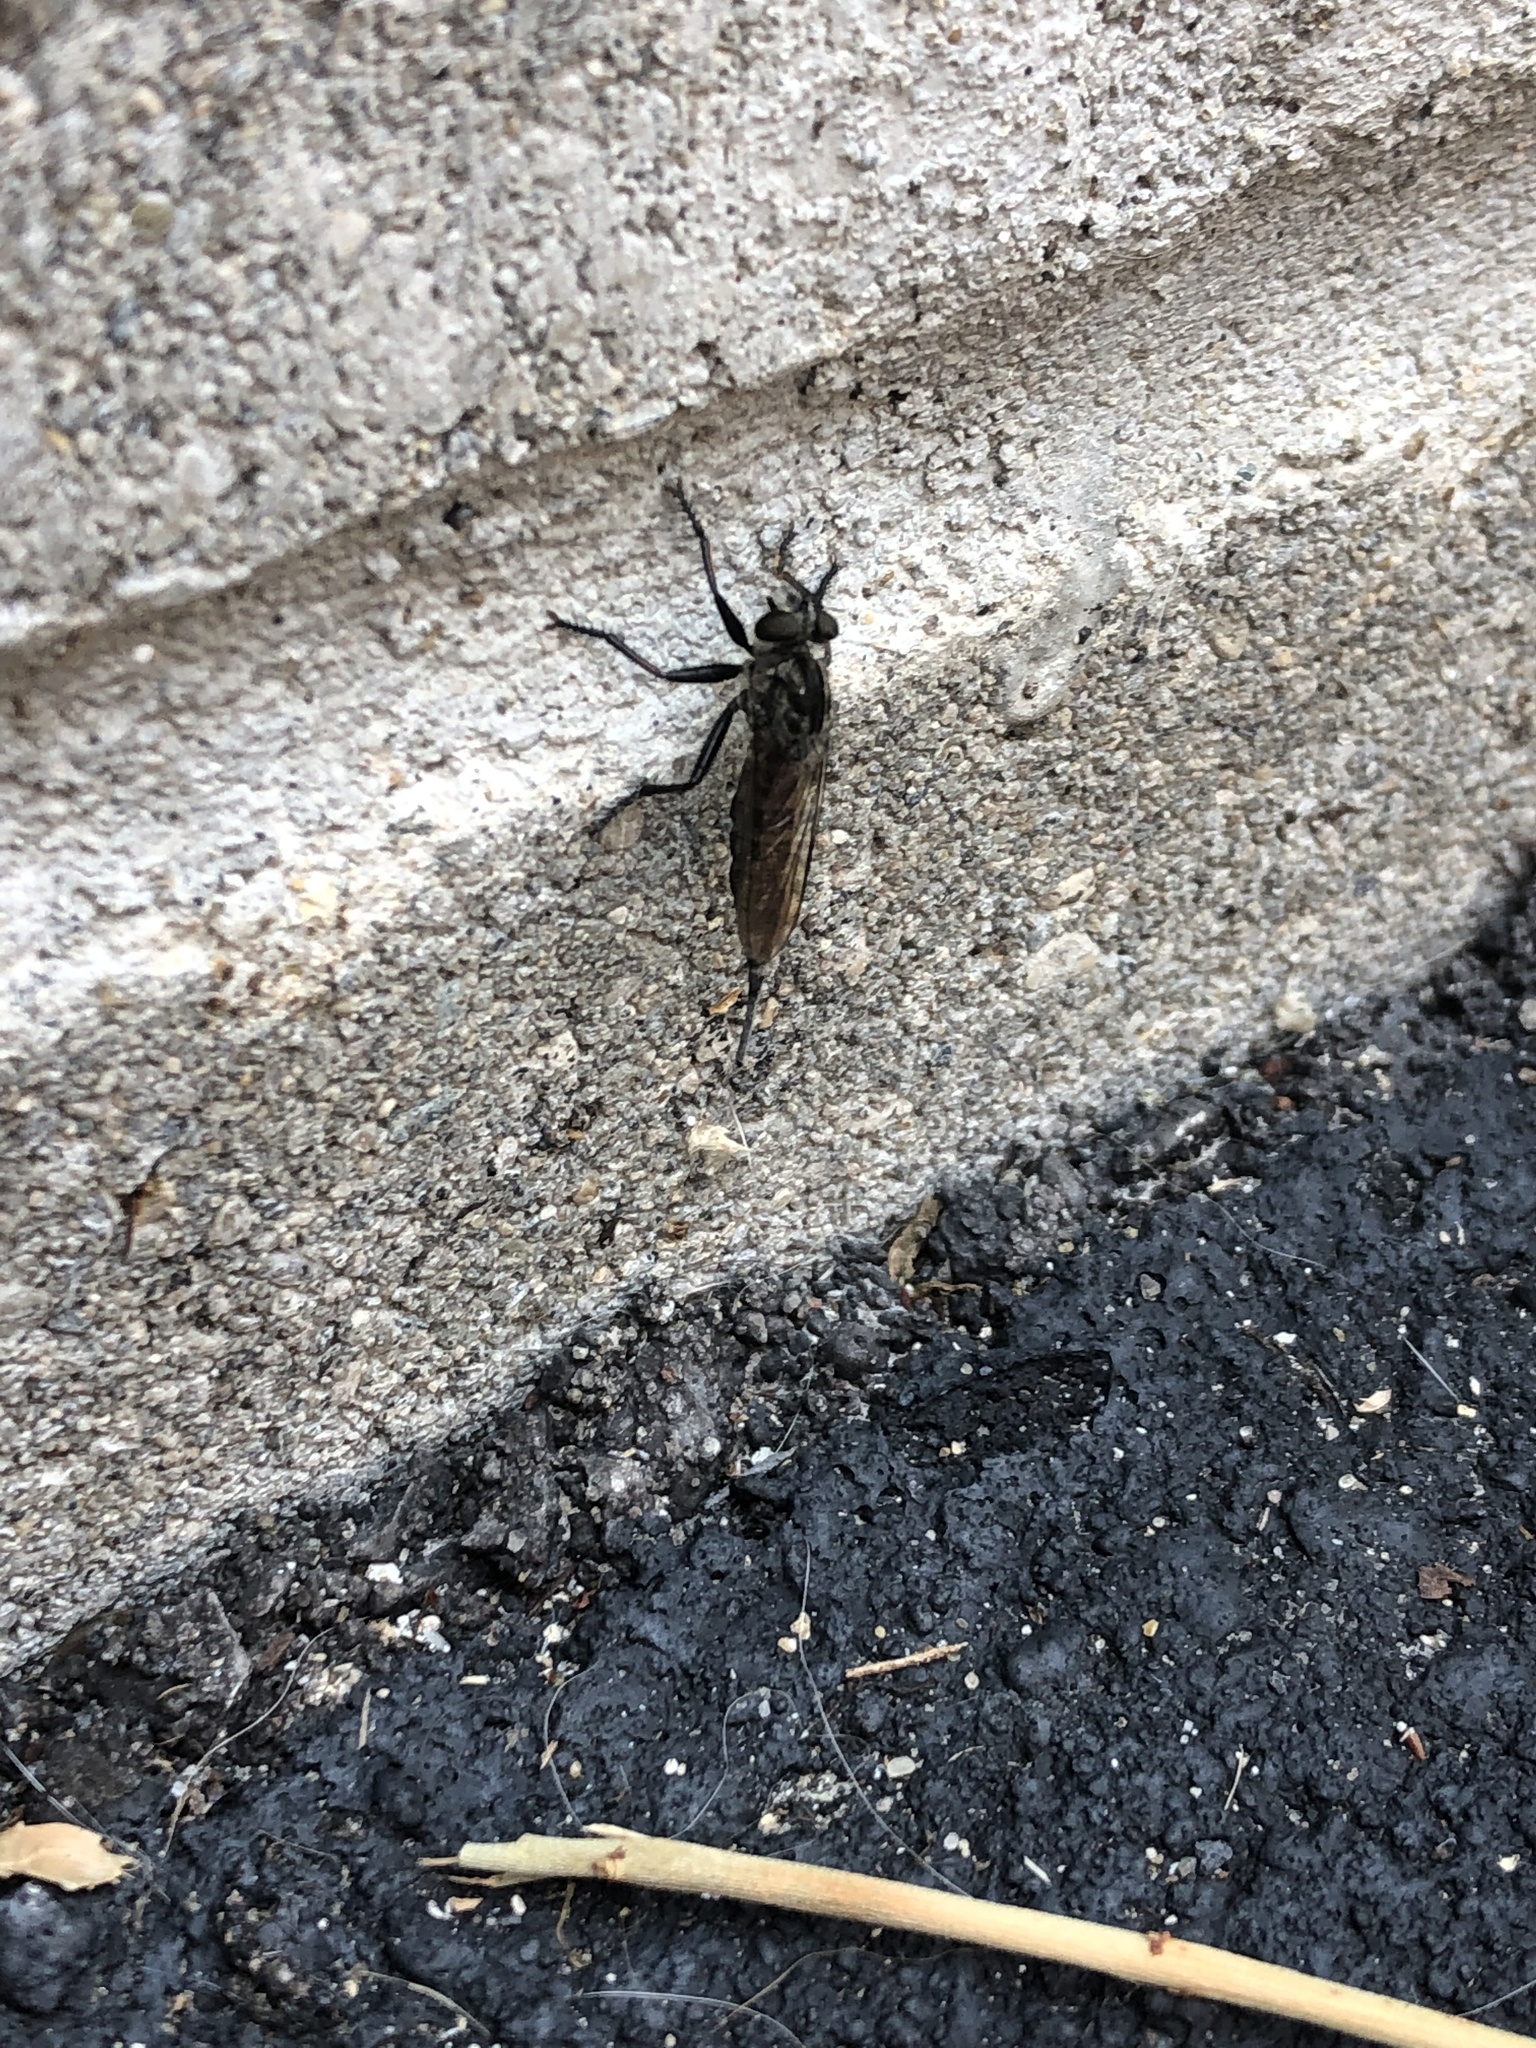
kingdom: Animalia
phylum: Arthropoda
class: Insecta
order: Diptera
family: Asilidae
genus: Efferia
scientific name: Efferia aestuans
